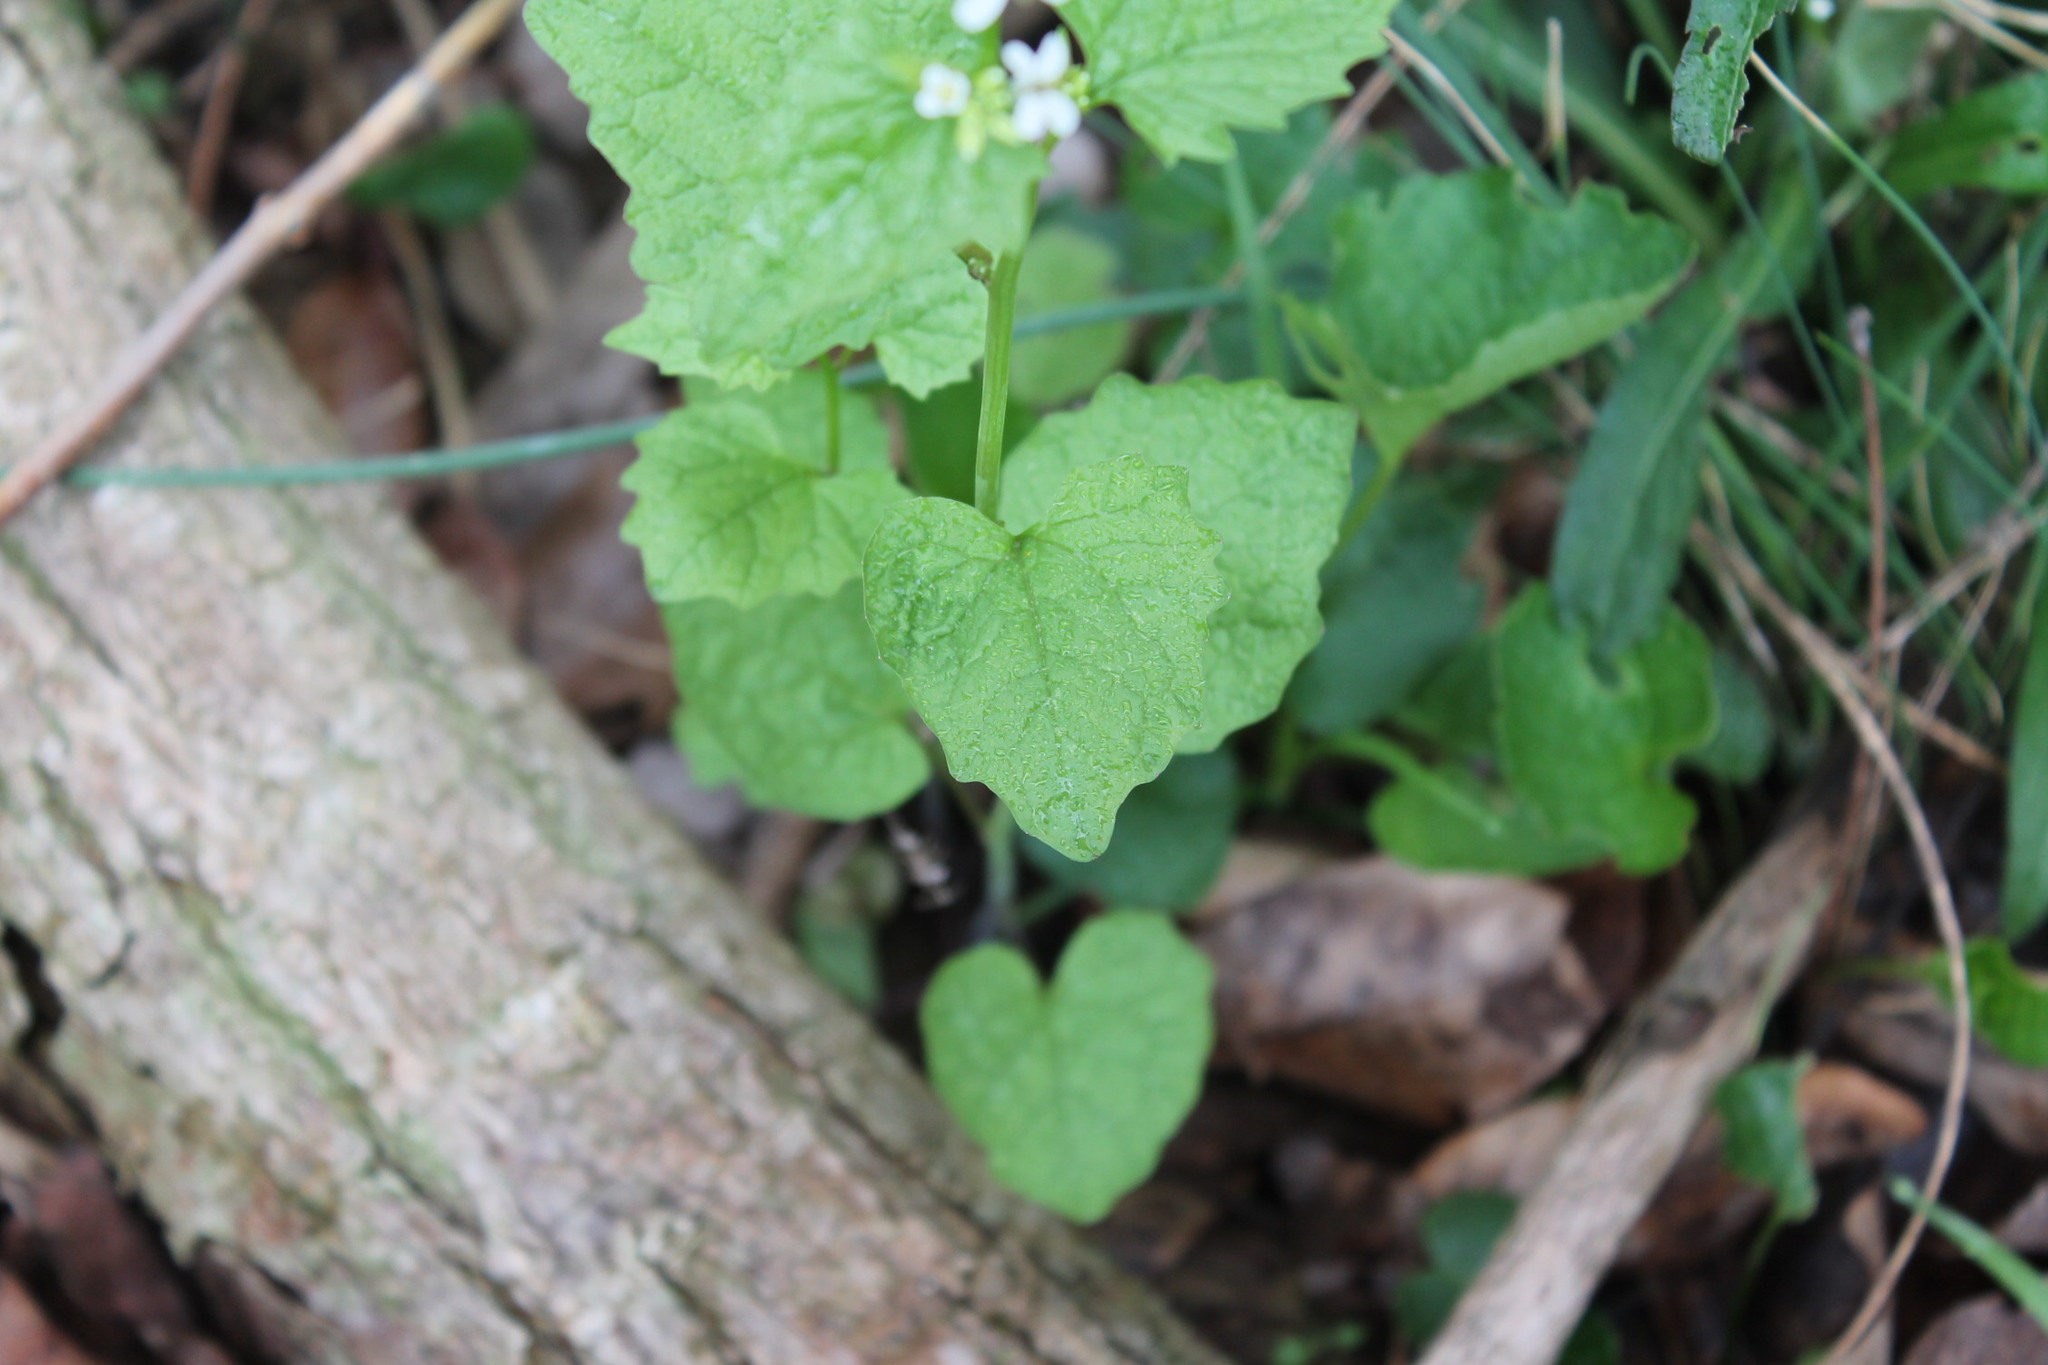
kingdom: Plantae
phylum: Tracheophyta
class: Magnoliopsida
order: Brassicales
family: Brassicaceae
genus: Alliaria
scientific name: Alliaria petiolata
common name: Garlic mustard
